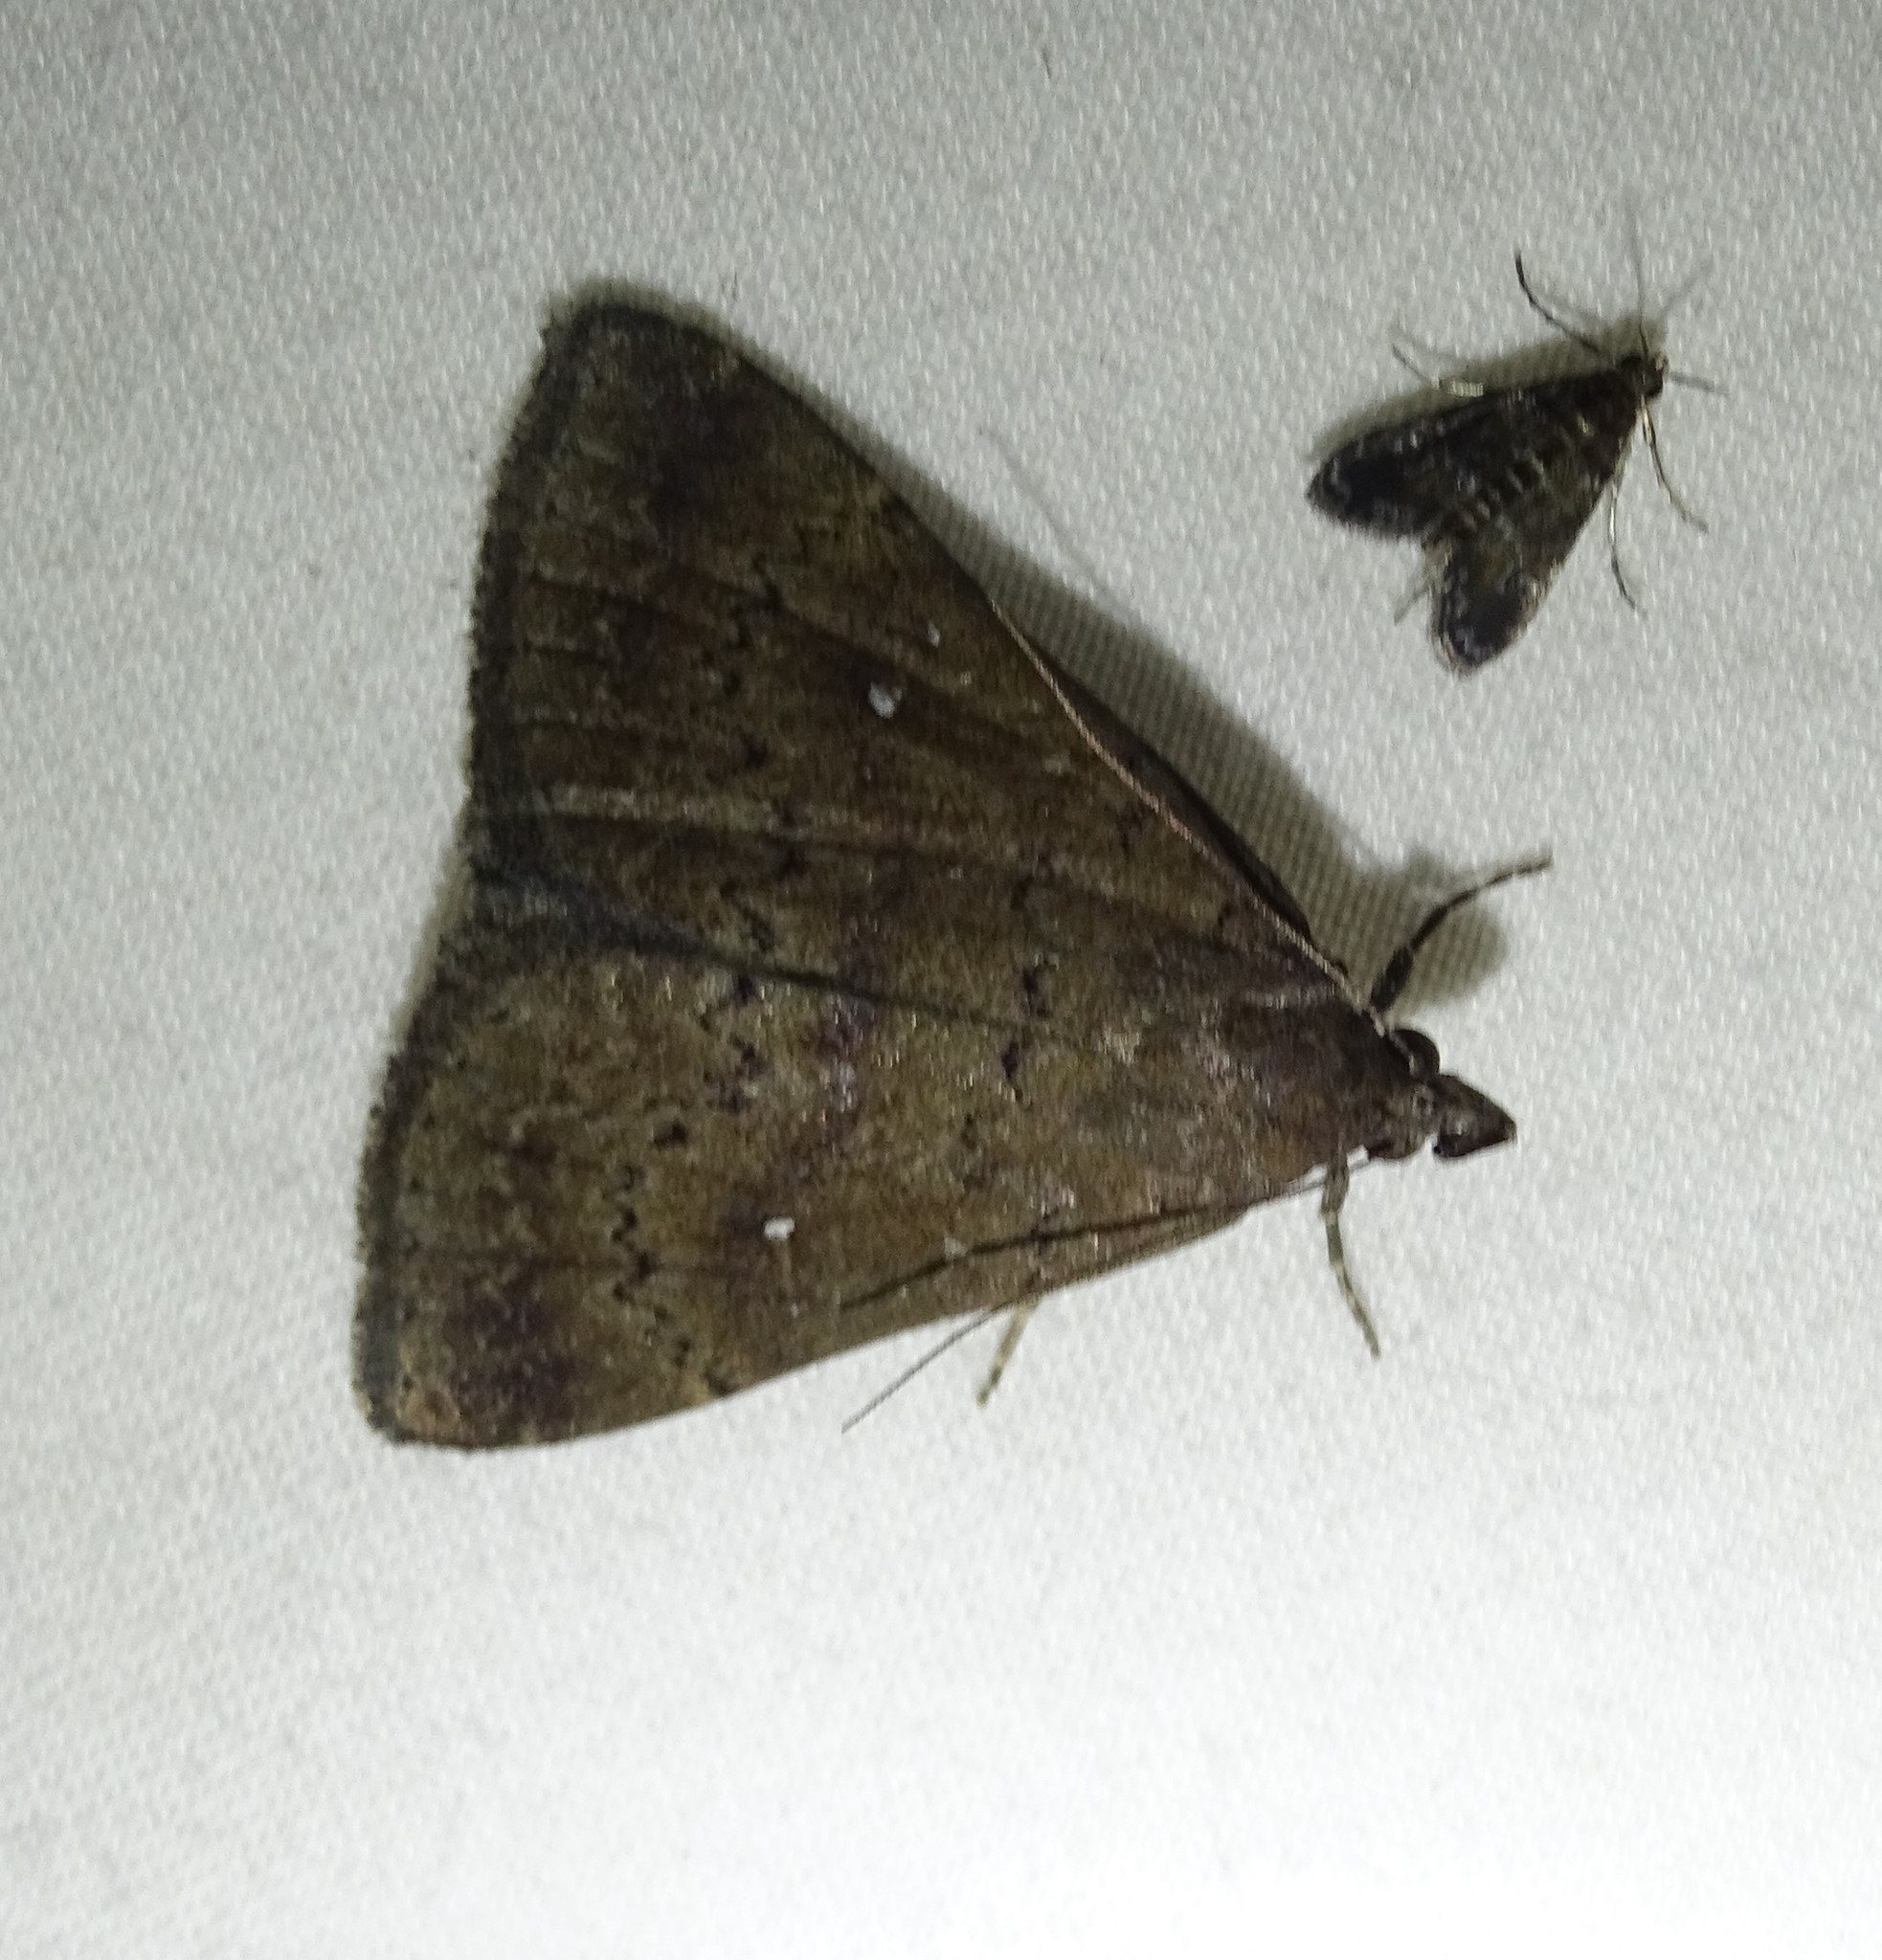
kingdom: Animalia
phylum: Arthropoda
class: Insecta
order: Lepidoptera
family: Erebidae
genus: Hypenula
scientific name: Hypenula cacuminalis
